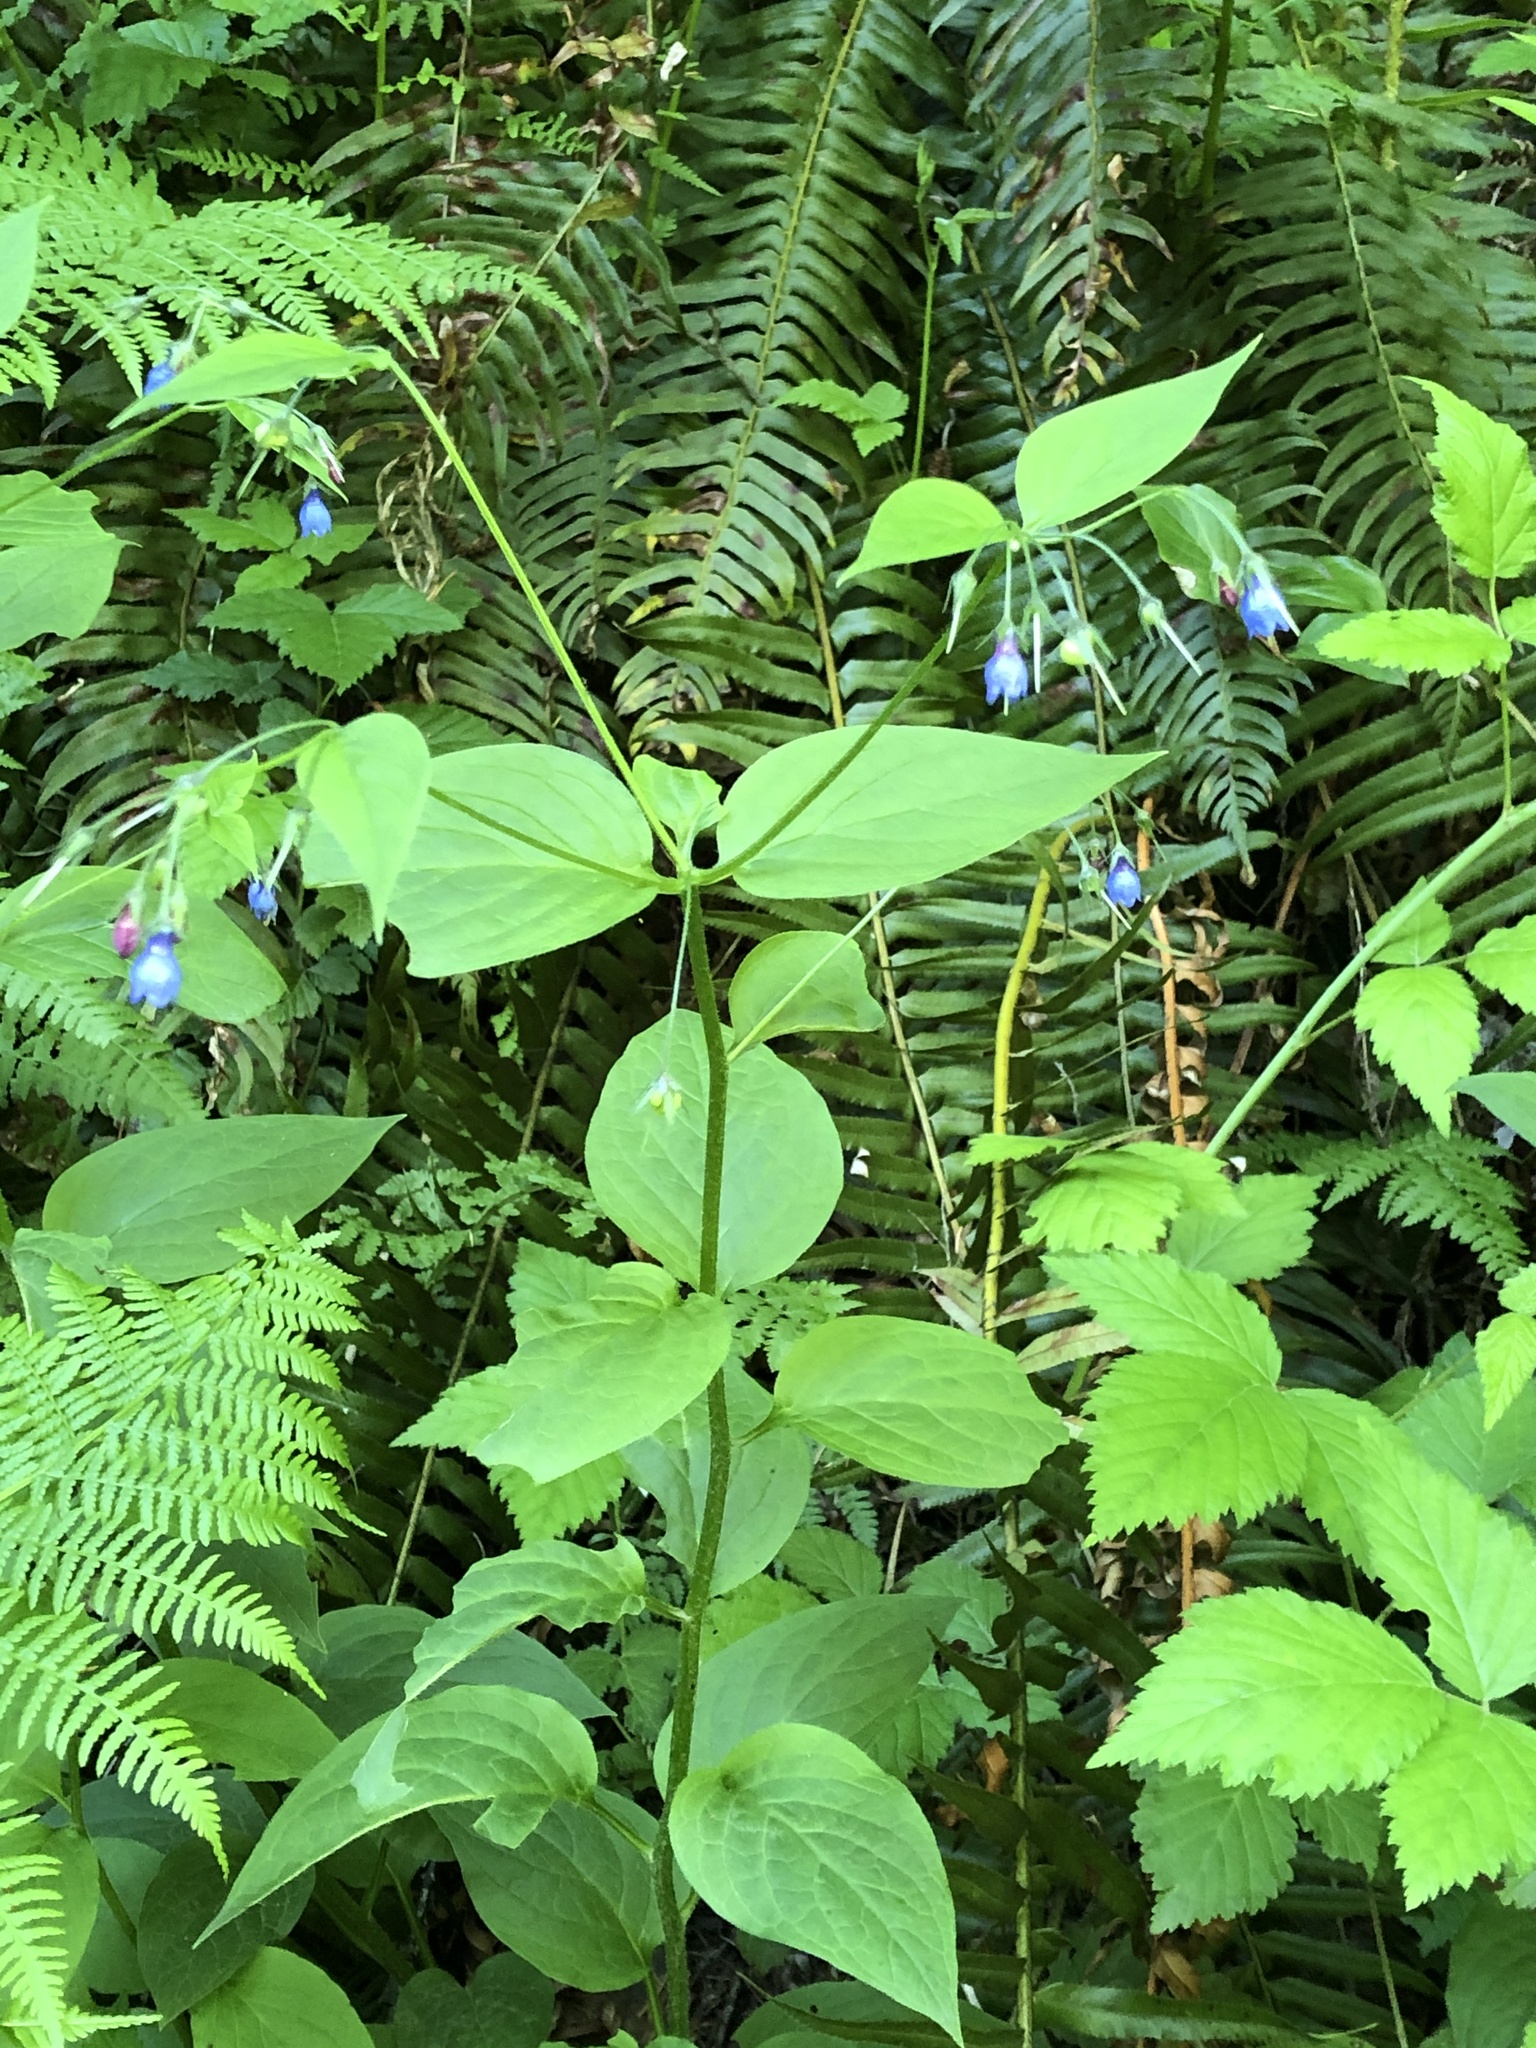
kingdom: Plantae
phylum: Tracheophyta
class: Magnoliopsida
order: Boraginales
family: Boraginaceae
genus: Mertensia
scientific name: Mertensia platyphylla
